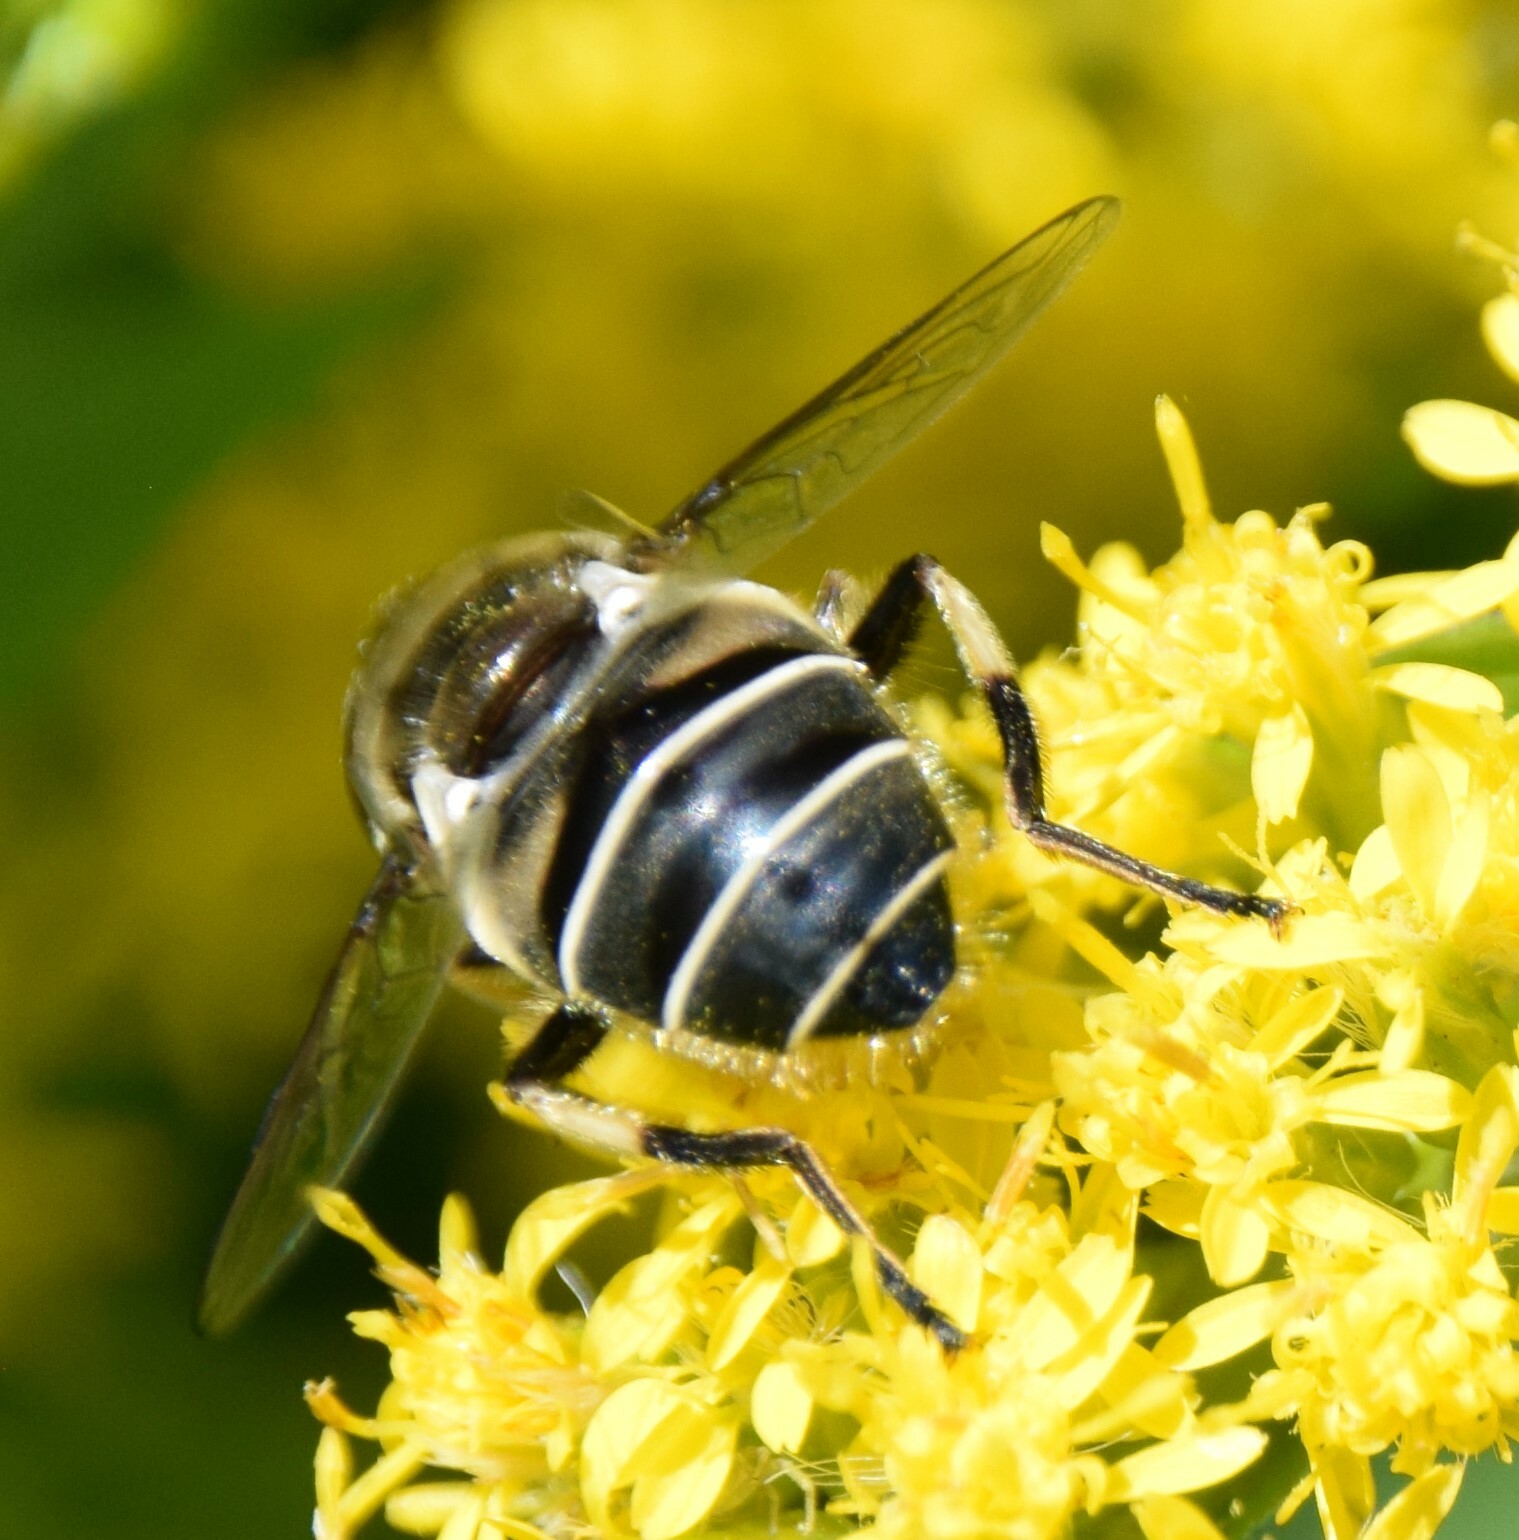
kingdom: Animalia
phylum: Arthropoda
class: Insecta
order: Diptera
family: Syrphidae
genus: Eristalis
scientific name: Eristalis dimidiata
